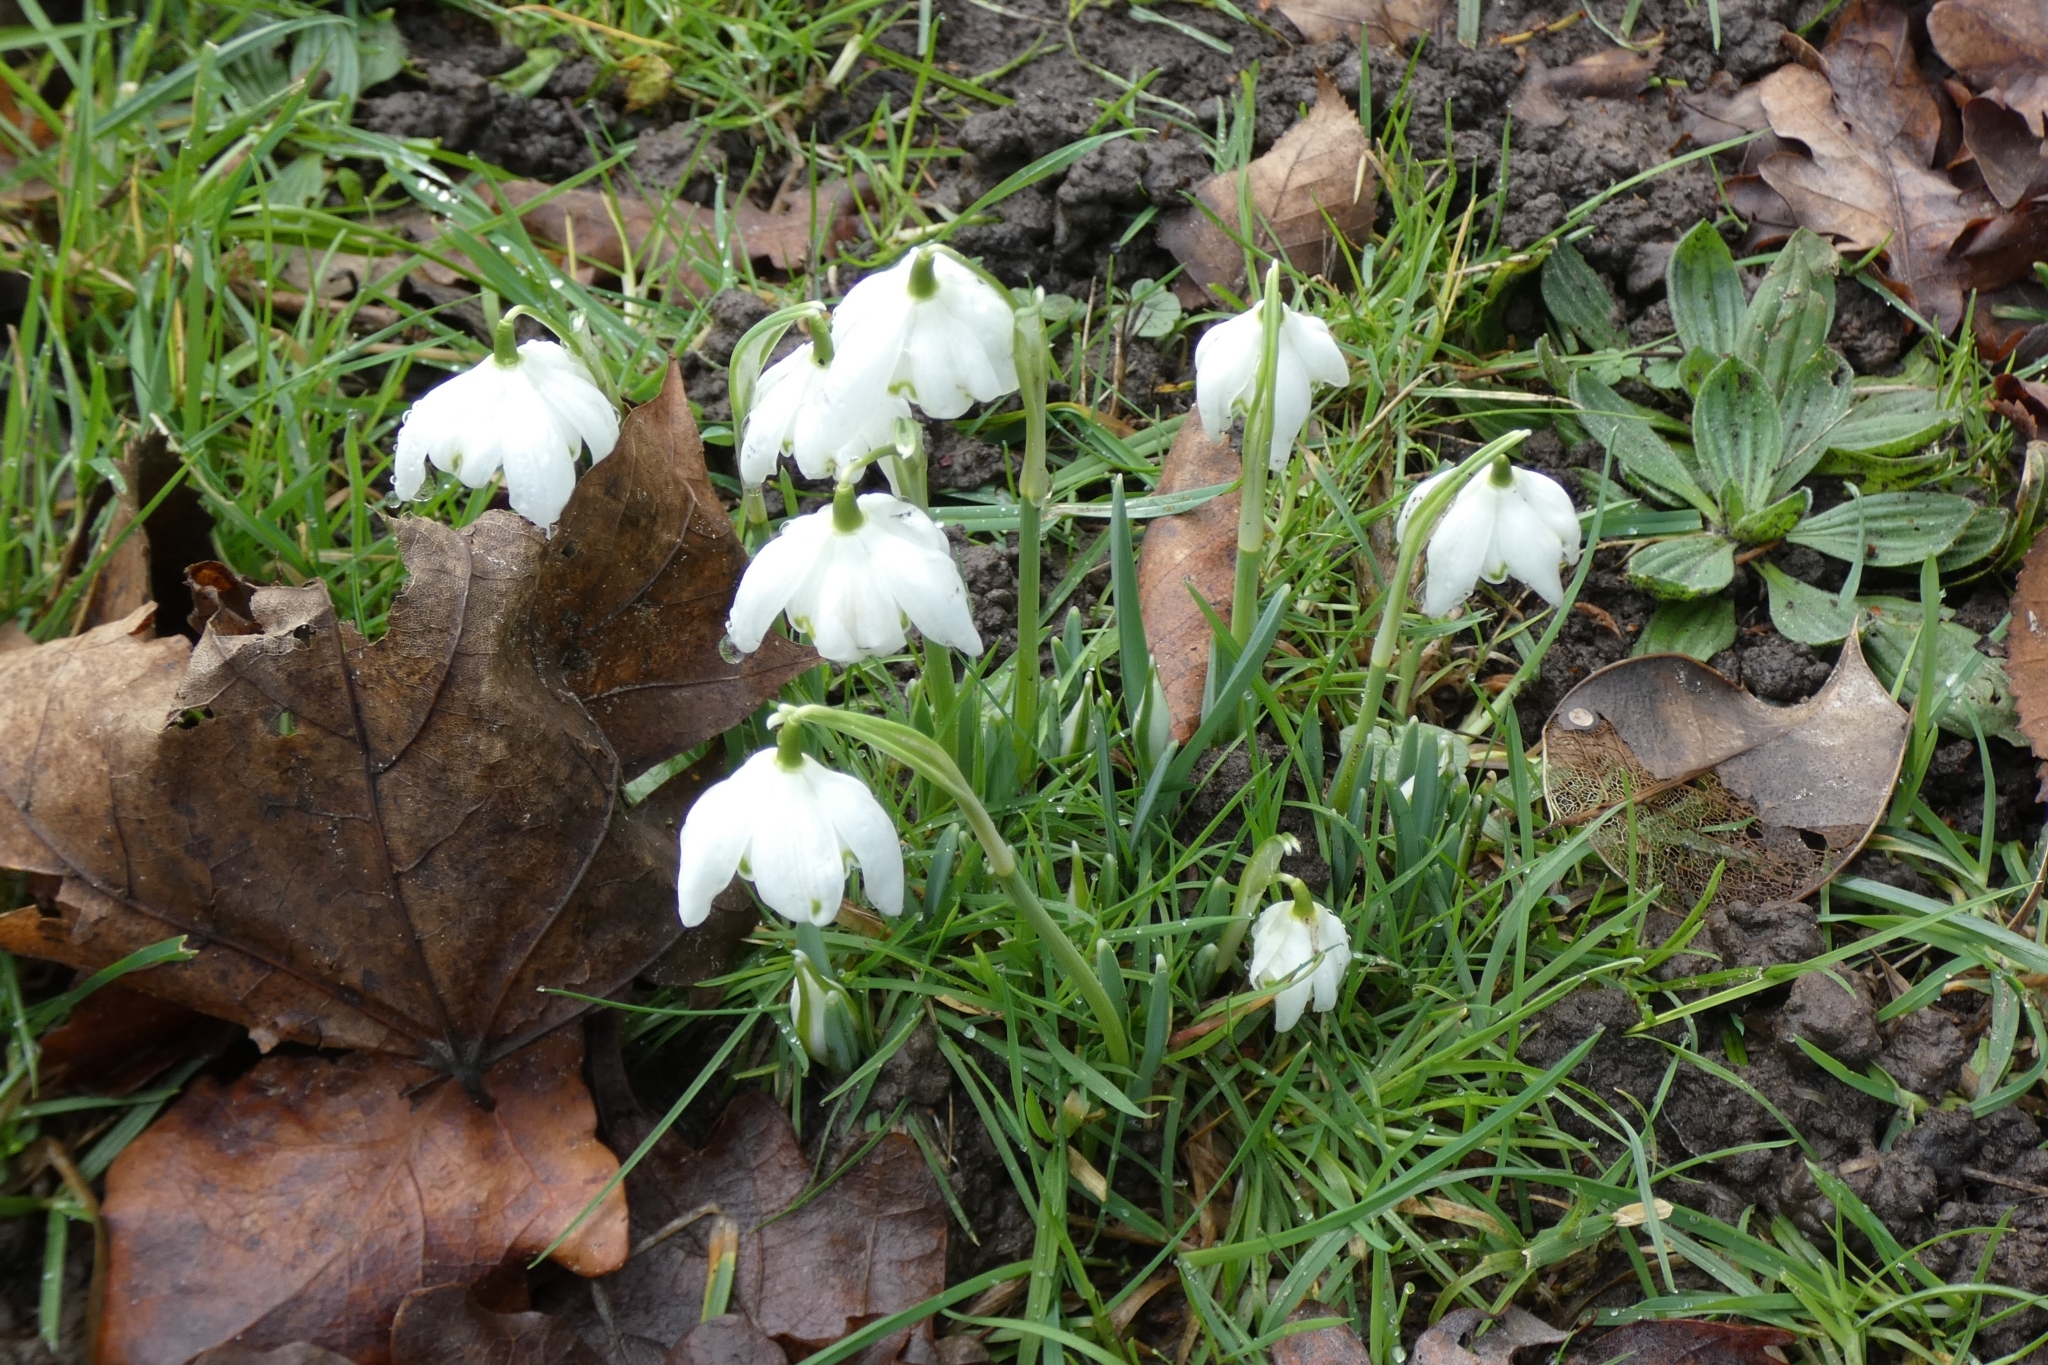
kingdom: Plantae
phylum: Tracheophyta
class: Liliopsida
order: Asparagales
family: Amaryllidaceae
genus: Galanthus
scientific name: Galanthus nivalis
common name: Snowdrop
